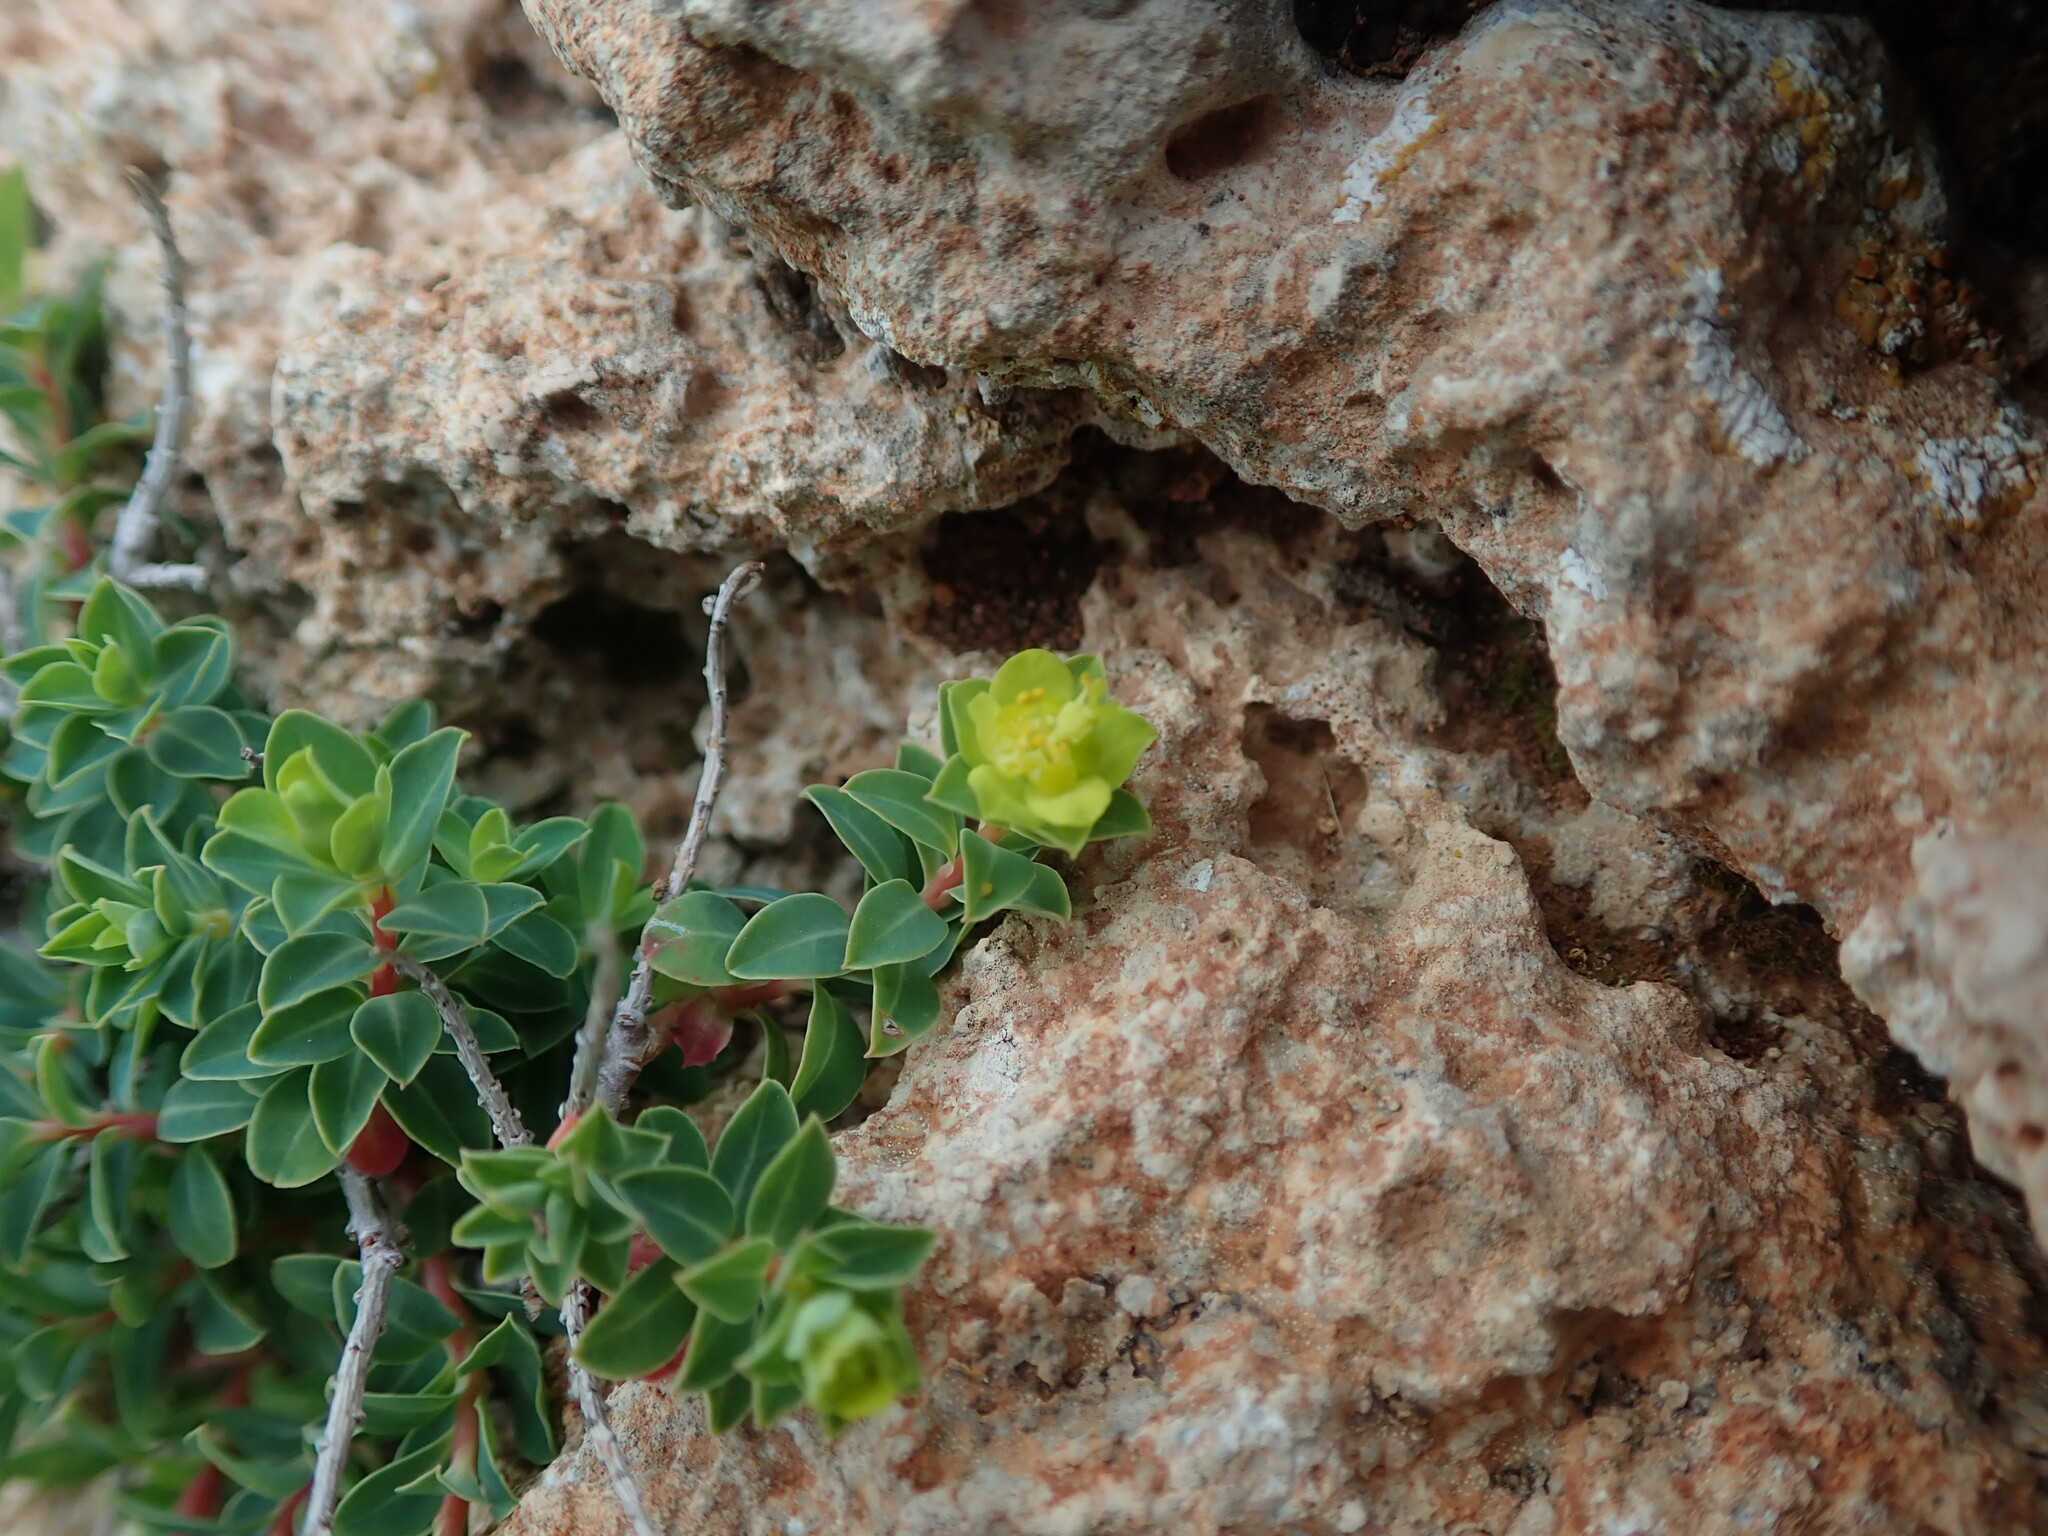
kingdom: Plantae
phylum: Tracheophyta
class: Magnoliopsida
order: Malpighiales
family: Euphorbiaceae
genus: Euphorbia
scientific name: Euphorbia melitensis
